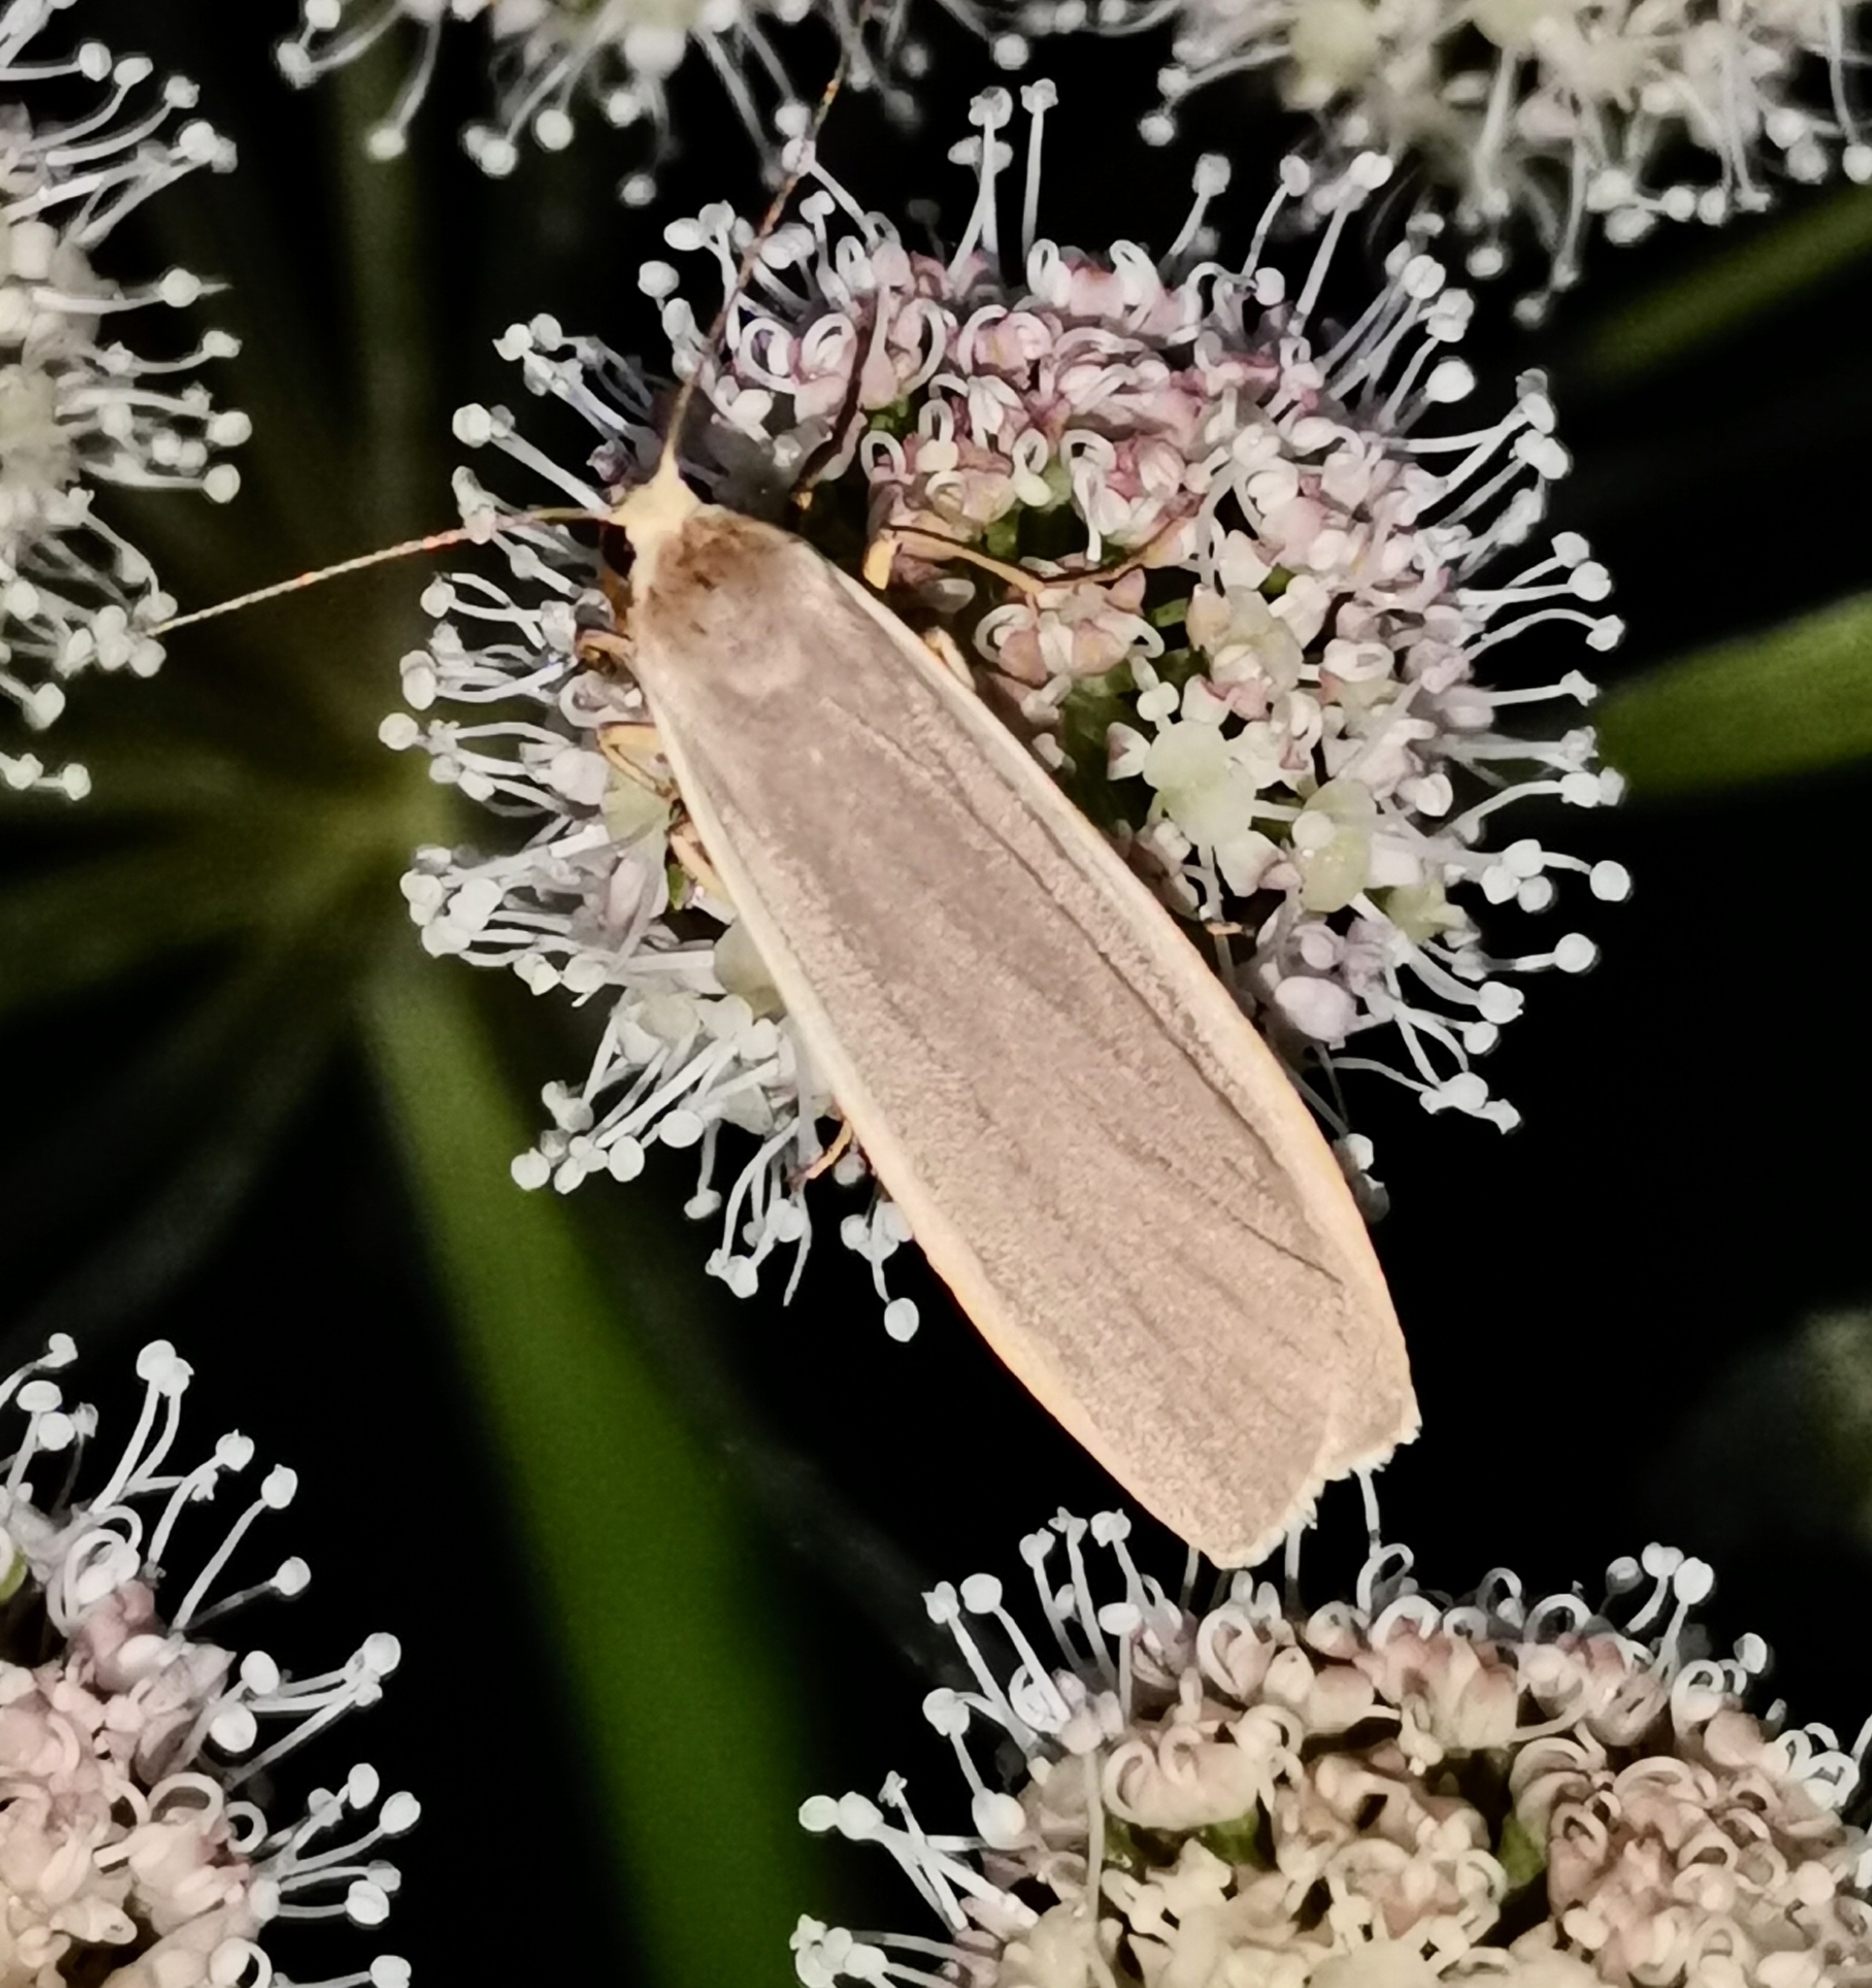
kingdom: Animalia
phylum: Arthropoda
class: Insecta
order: Lepidoptera
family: Erebidae
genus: Nyea
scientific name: Nyea lurideola
